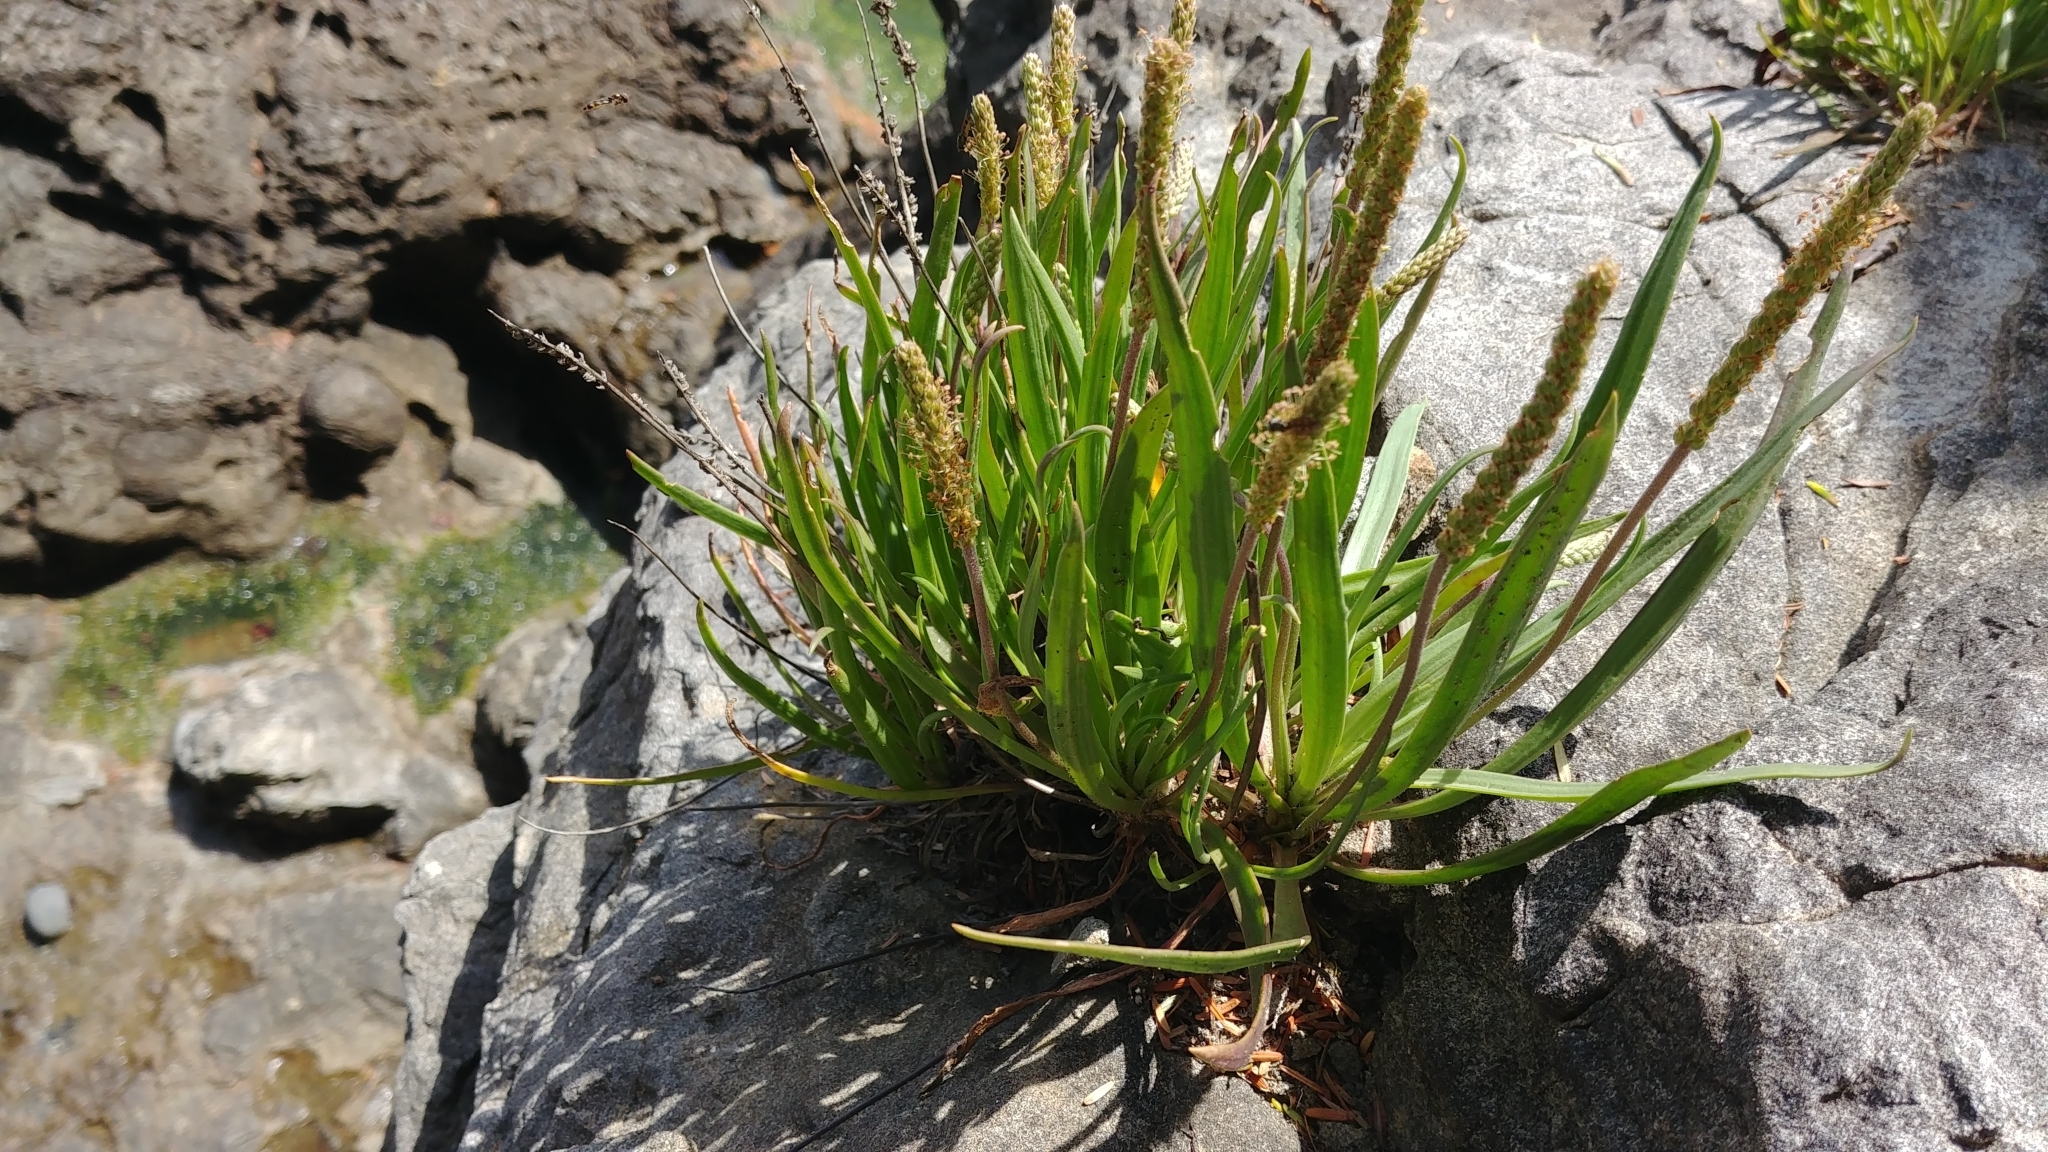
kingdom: Plantae
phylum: Tracheophyta
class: Magnoliopsida
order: Lamiales
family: Plantaginaceae
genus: Plantago
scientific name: Plantago maritima
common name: Sea plantain
